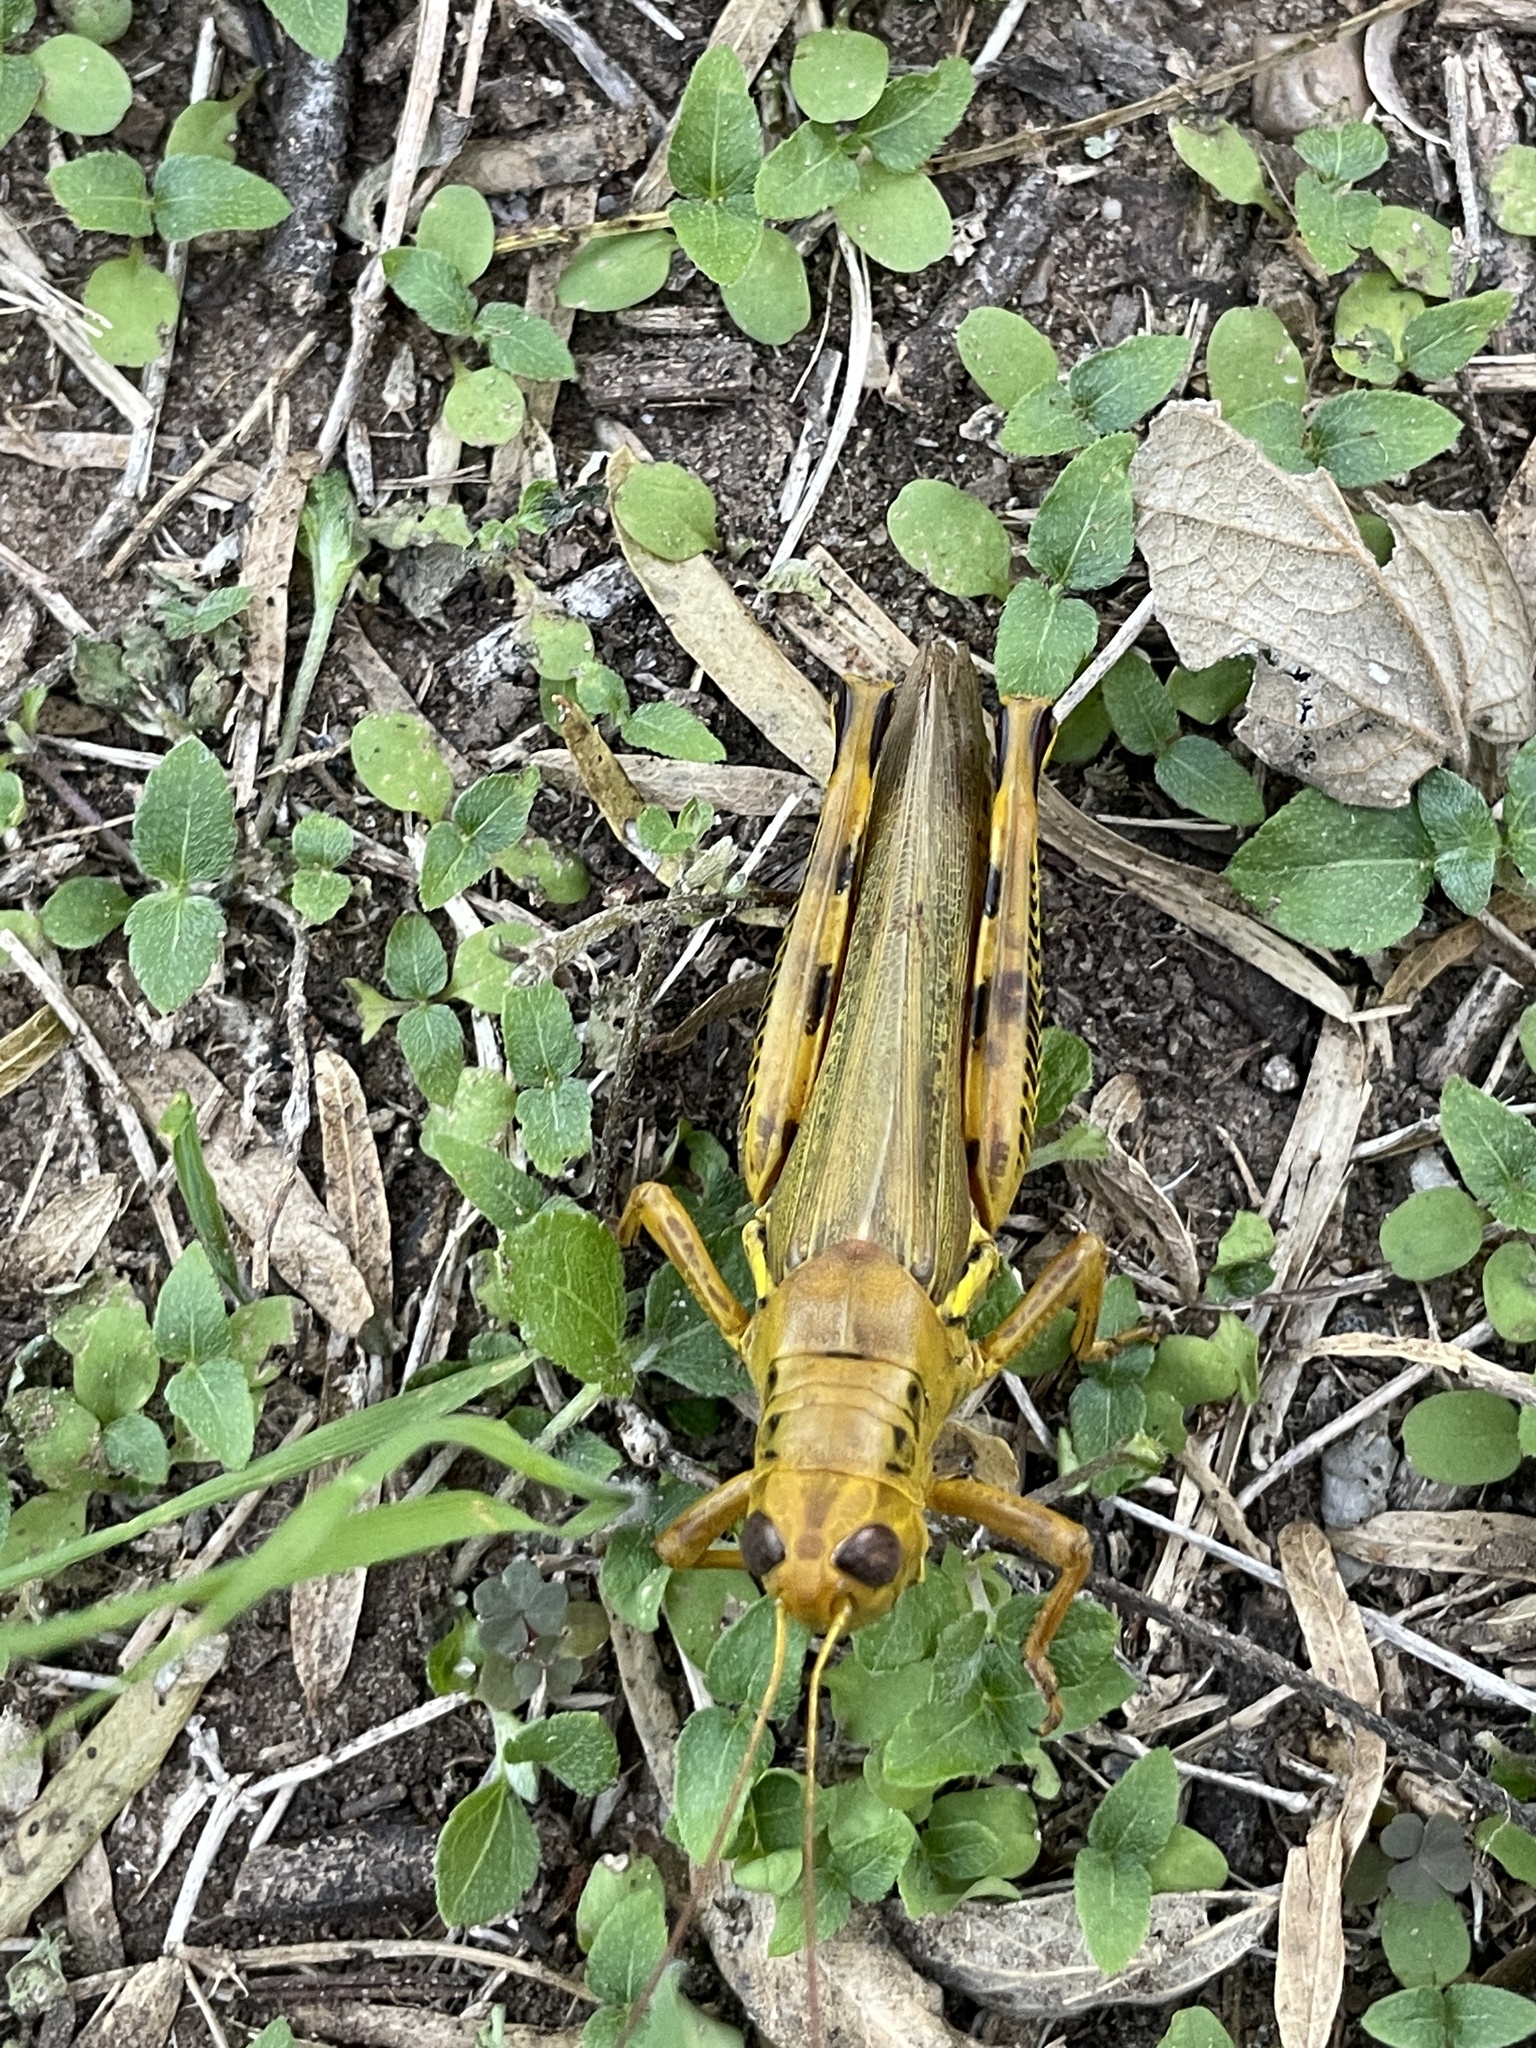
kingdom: Animalia
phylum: Arthropoda
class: Insecta
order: Orthoptera
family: Acrididae
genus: Melanoplus
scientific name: Melanoplus differentialis
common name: Differential grasshopper
